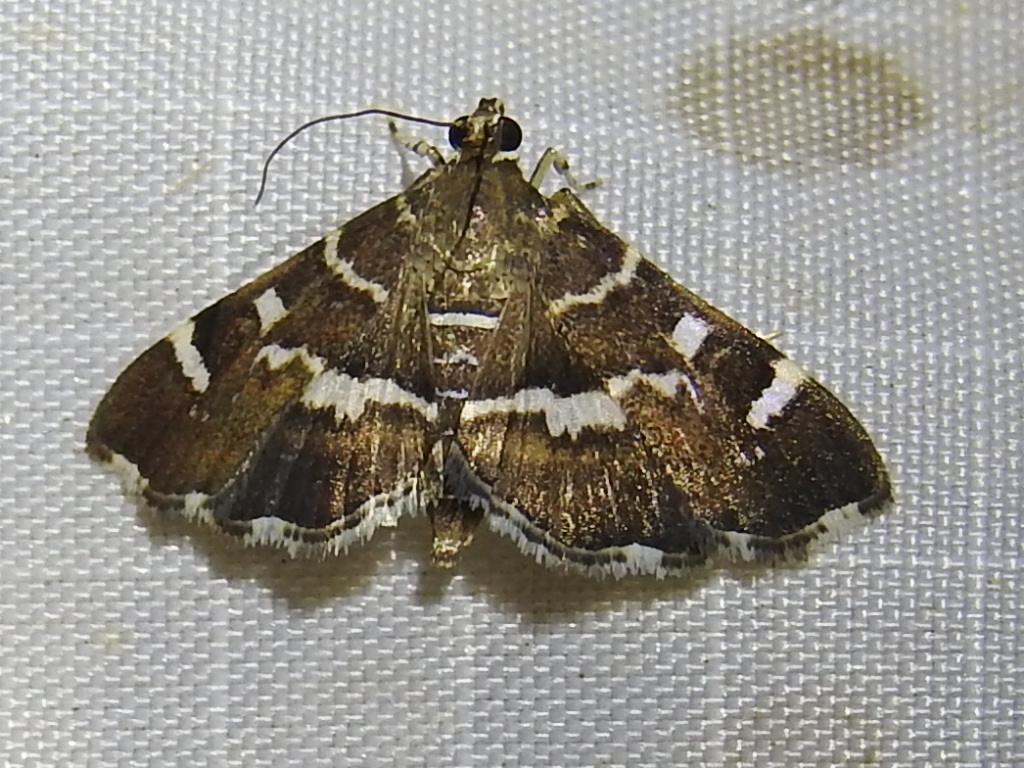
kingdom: Animalia
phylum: Arthropoda
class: Insecta
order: Lepidoptera
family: Crambidae
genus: Hymenia
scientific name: Hymenia perspectalis
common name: Spotted beet webworm
